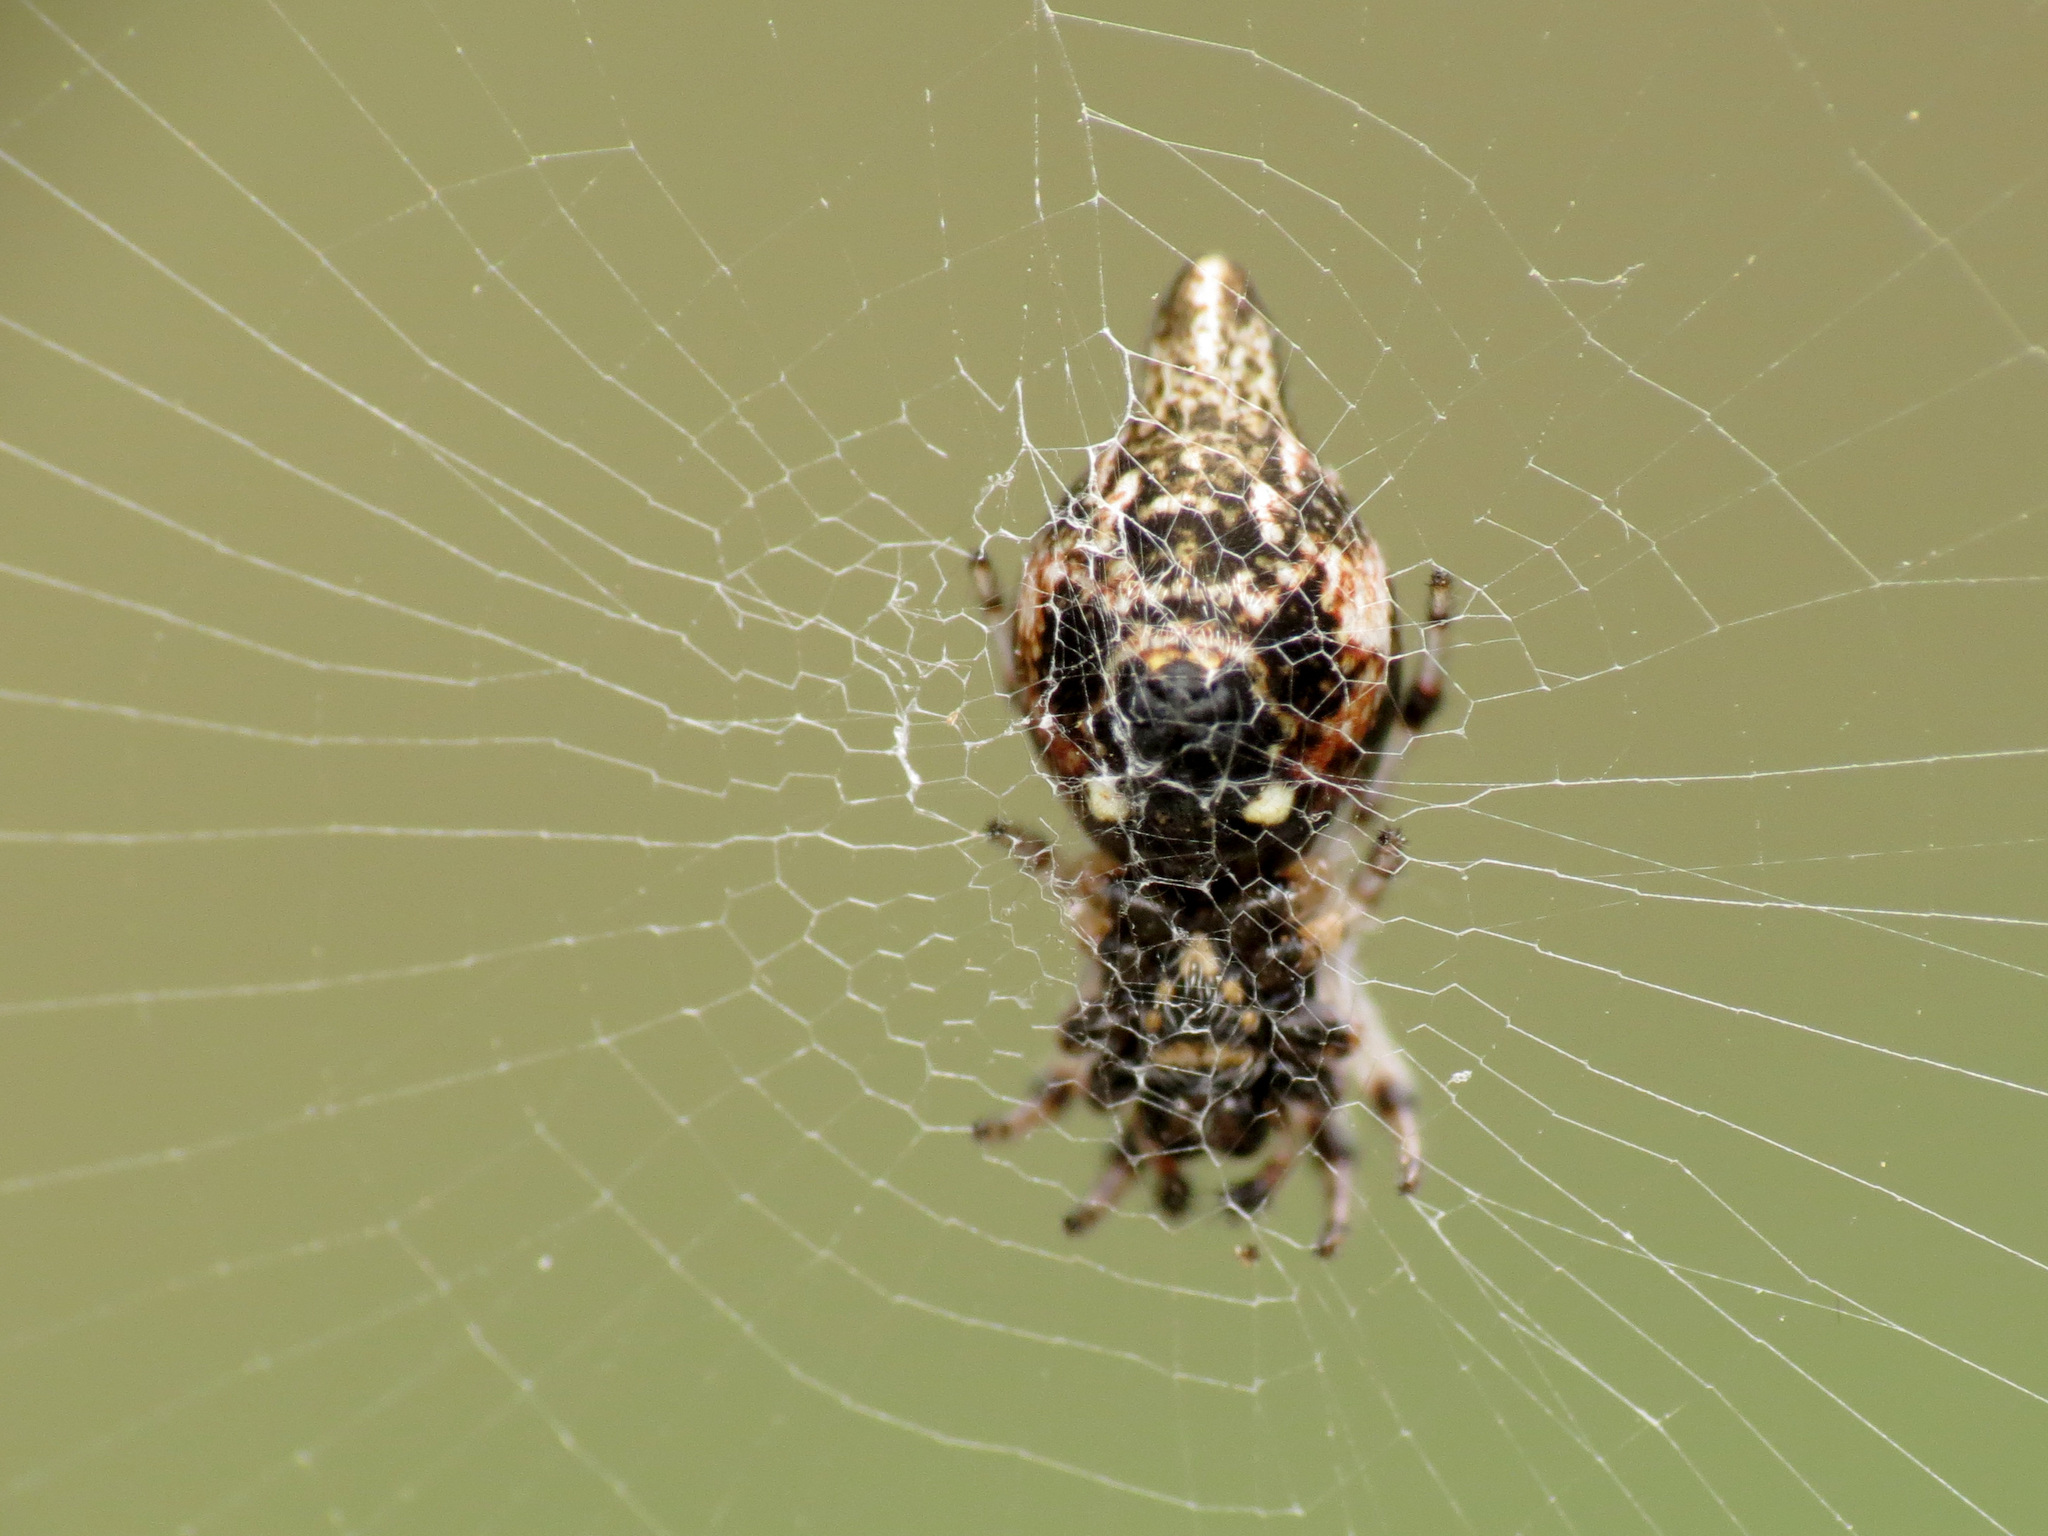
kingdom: Animalia
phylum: Arthropoda
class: Arachnida
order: Araneae
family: Araneidae
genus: Cyclosa
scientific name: Cyclosa turbinata
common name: Orb weavers
